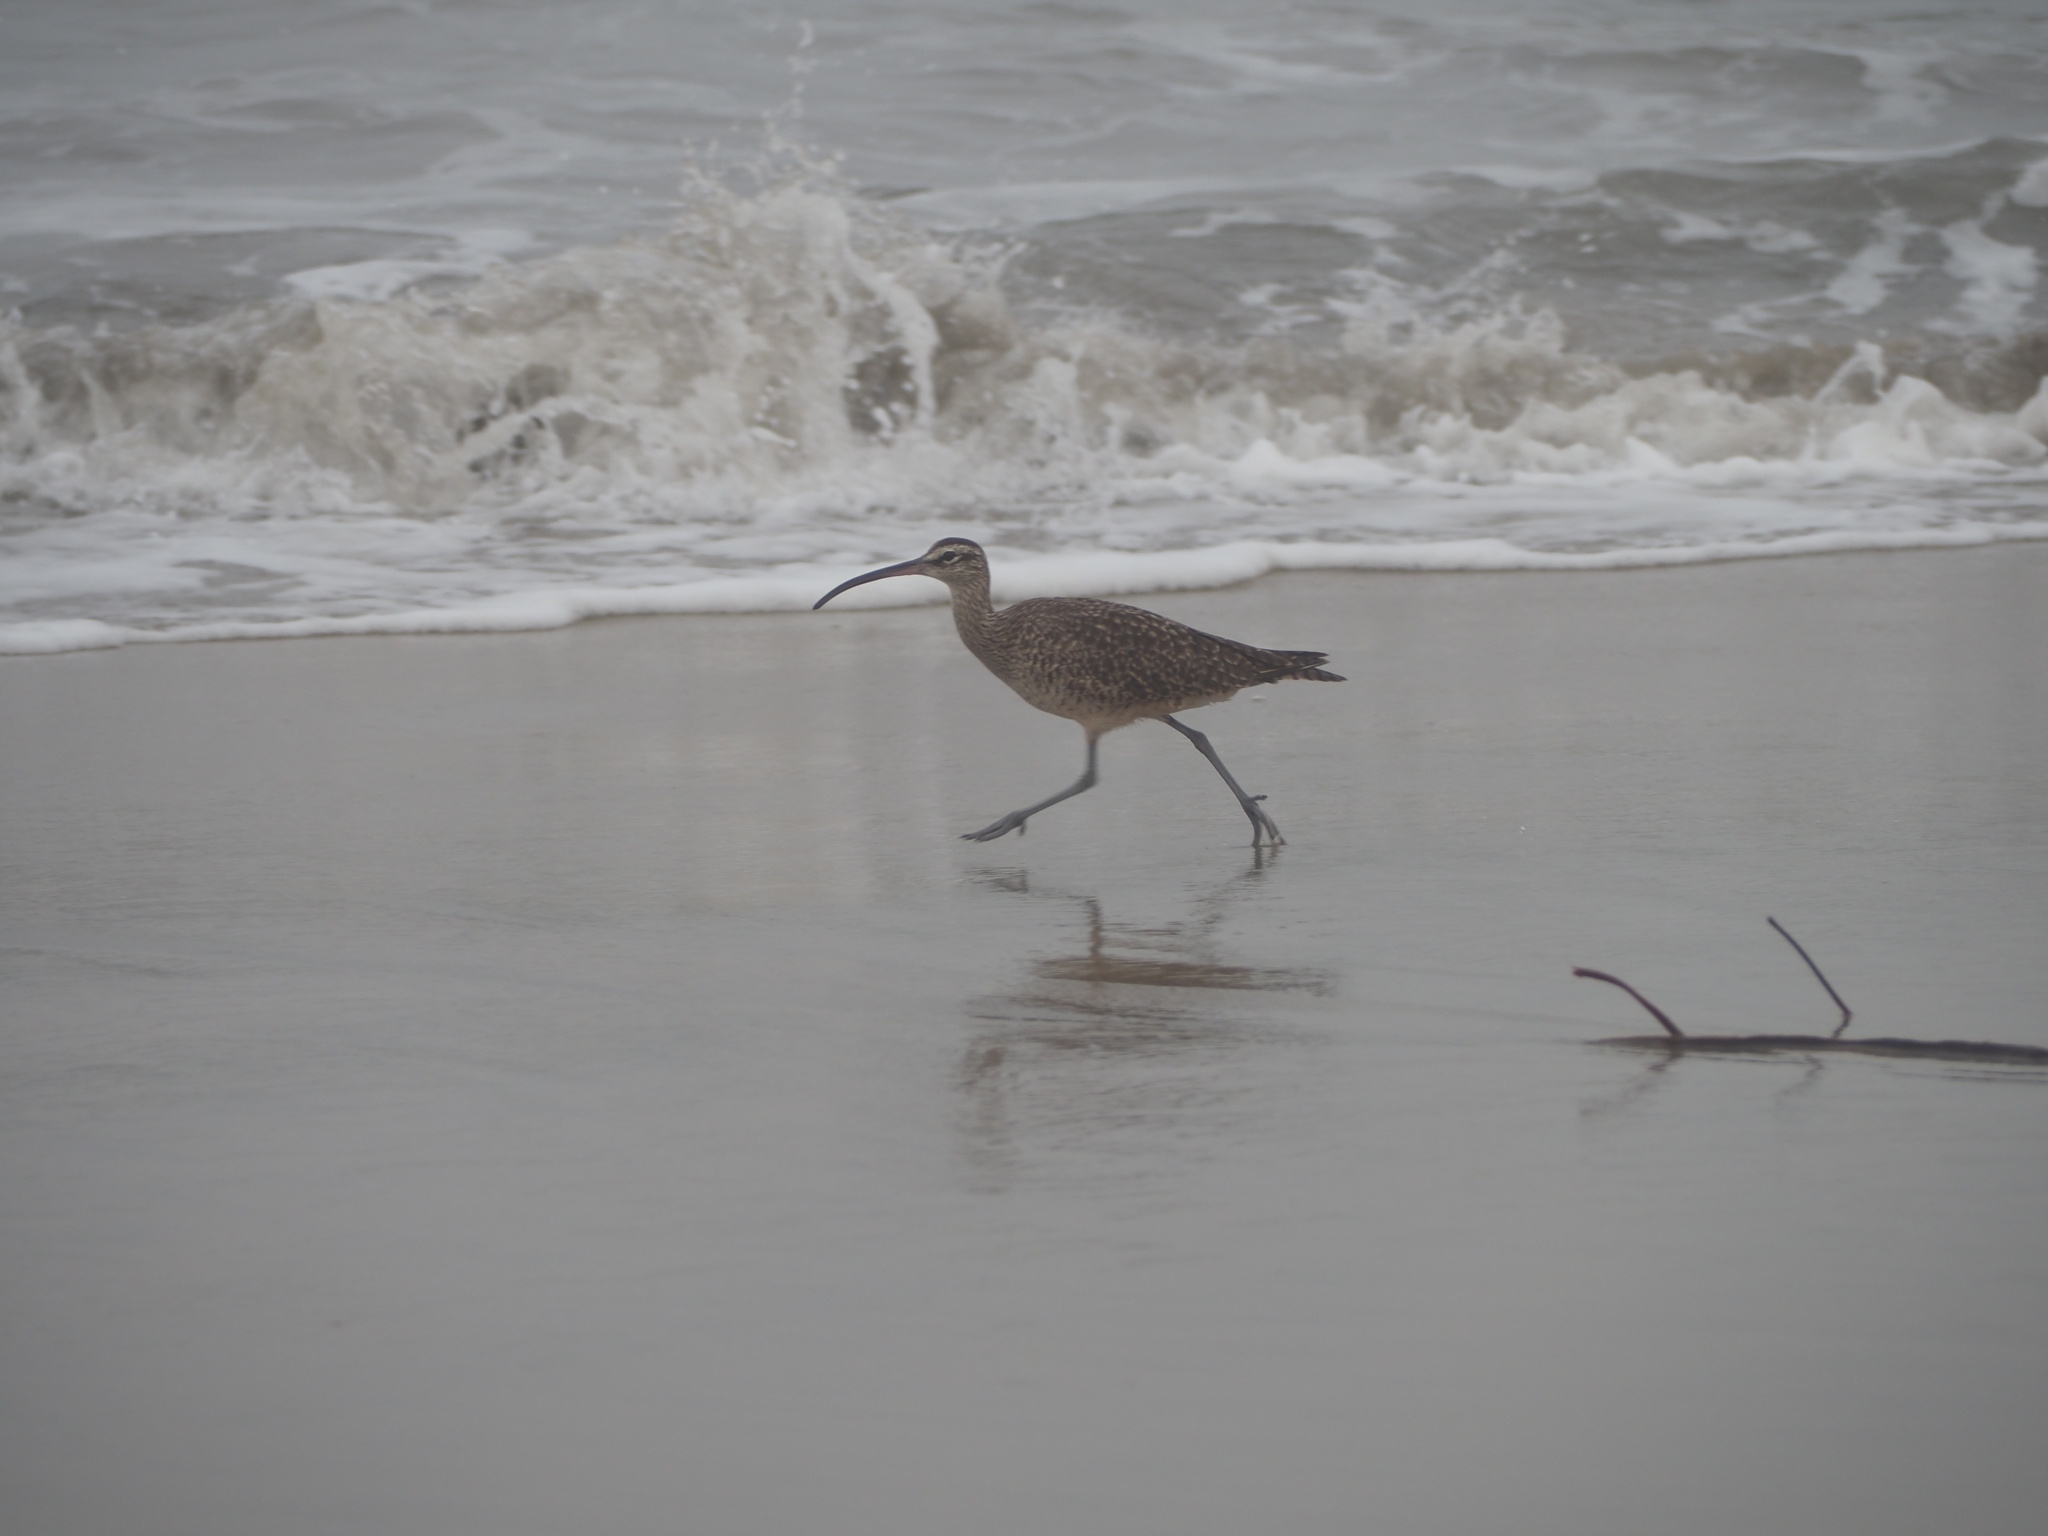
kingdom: Animalia
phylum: Chordata
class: Aves
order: Charadriiformes
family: Scolopacidae
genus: Numenius
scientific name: Numenius phaeopus
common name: Whimbrel
